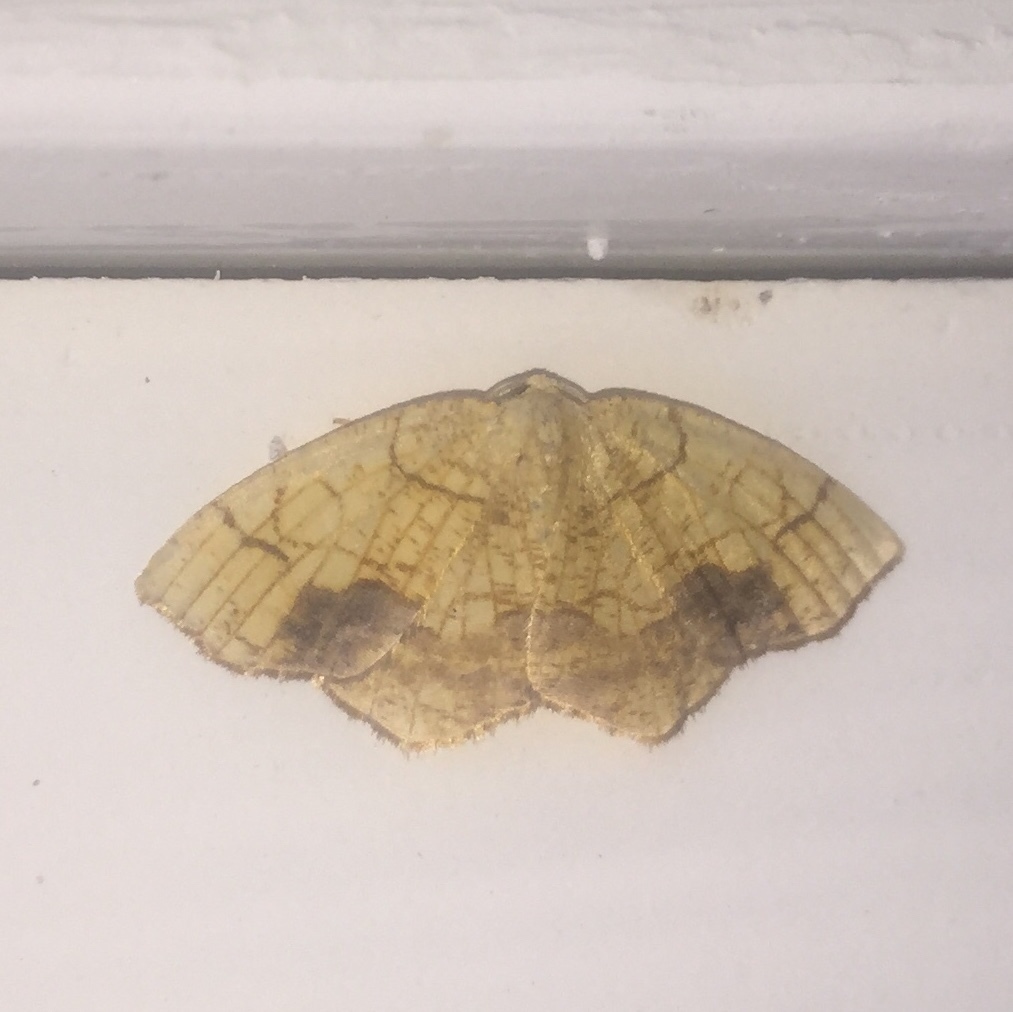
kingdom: Animalia
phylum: Arthropoda
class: Insecta
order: Lepidoptera
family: Geometridae
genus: Nematocampa
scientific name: Nematocampa resistaria
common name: Horned spanworm moth
